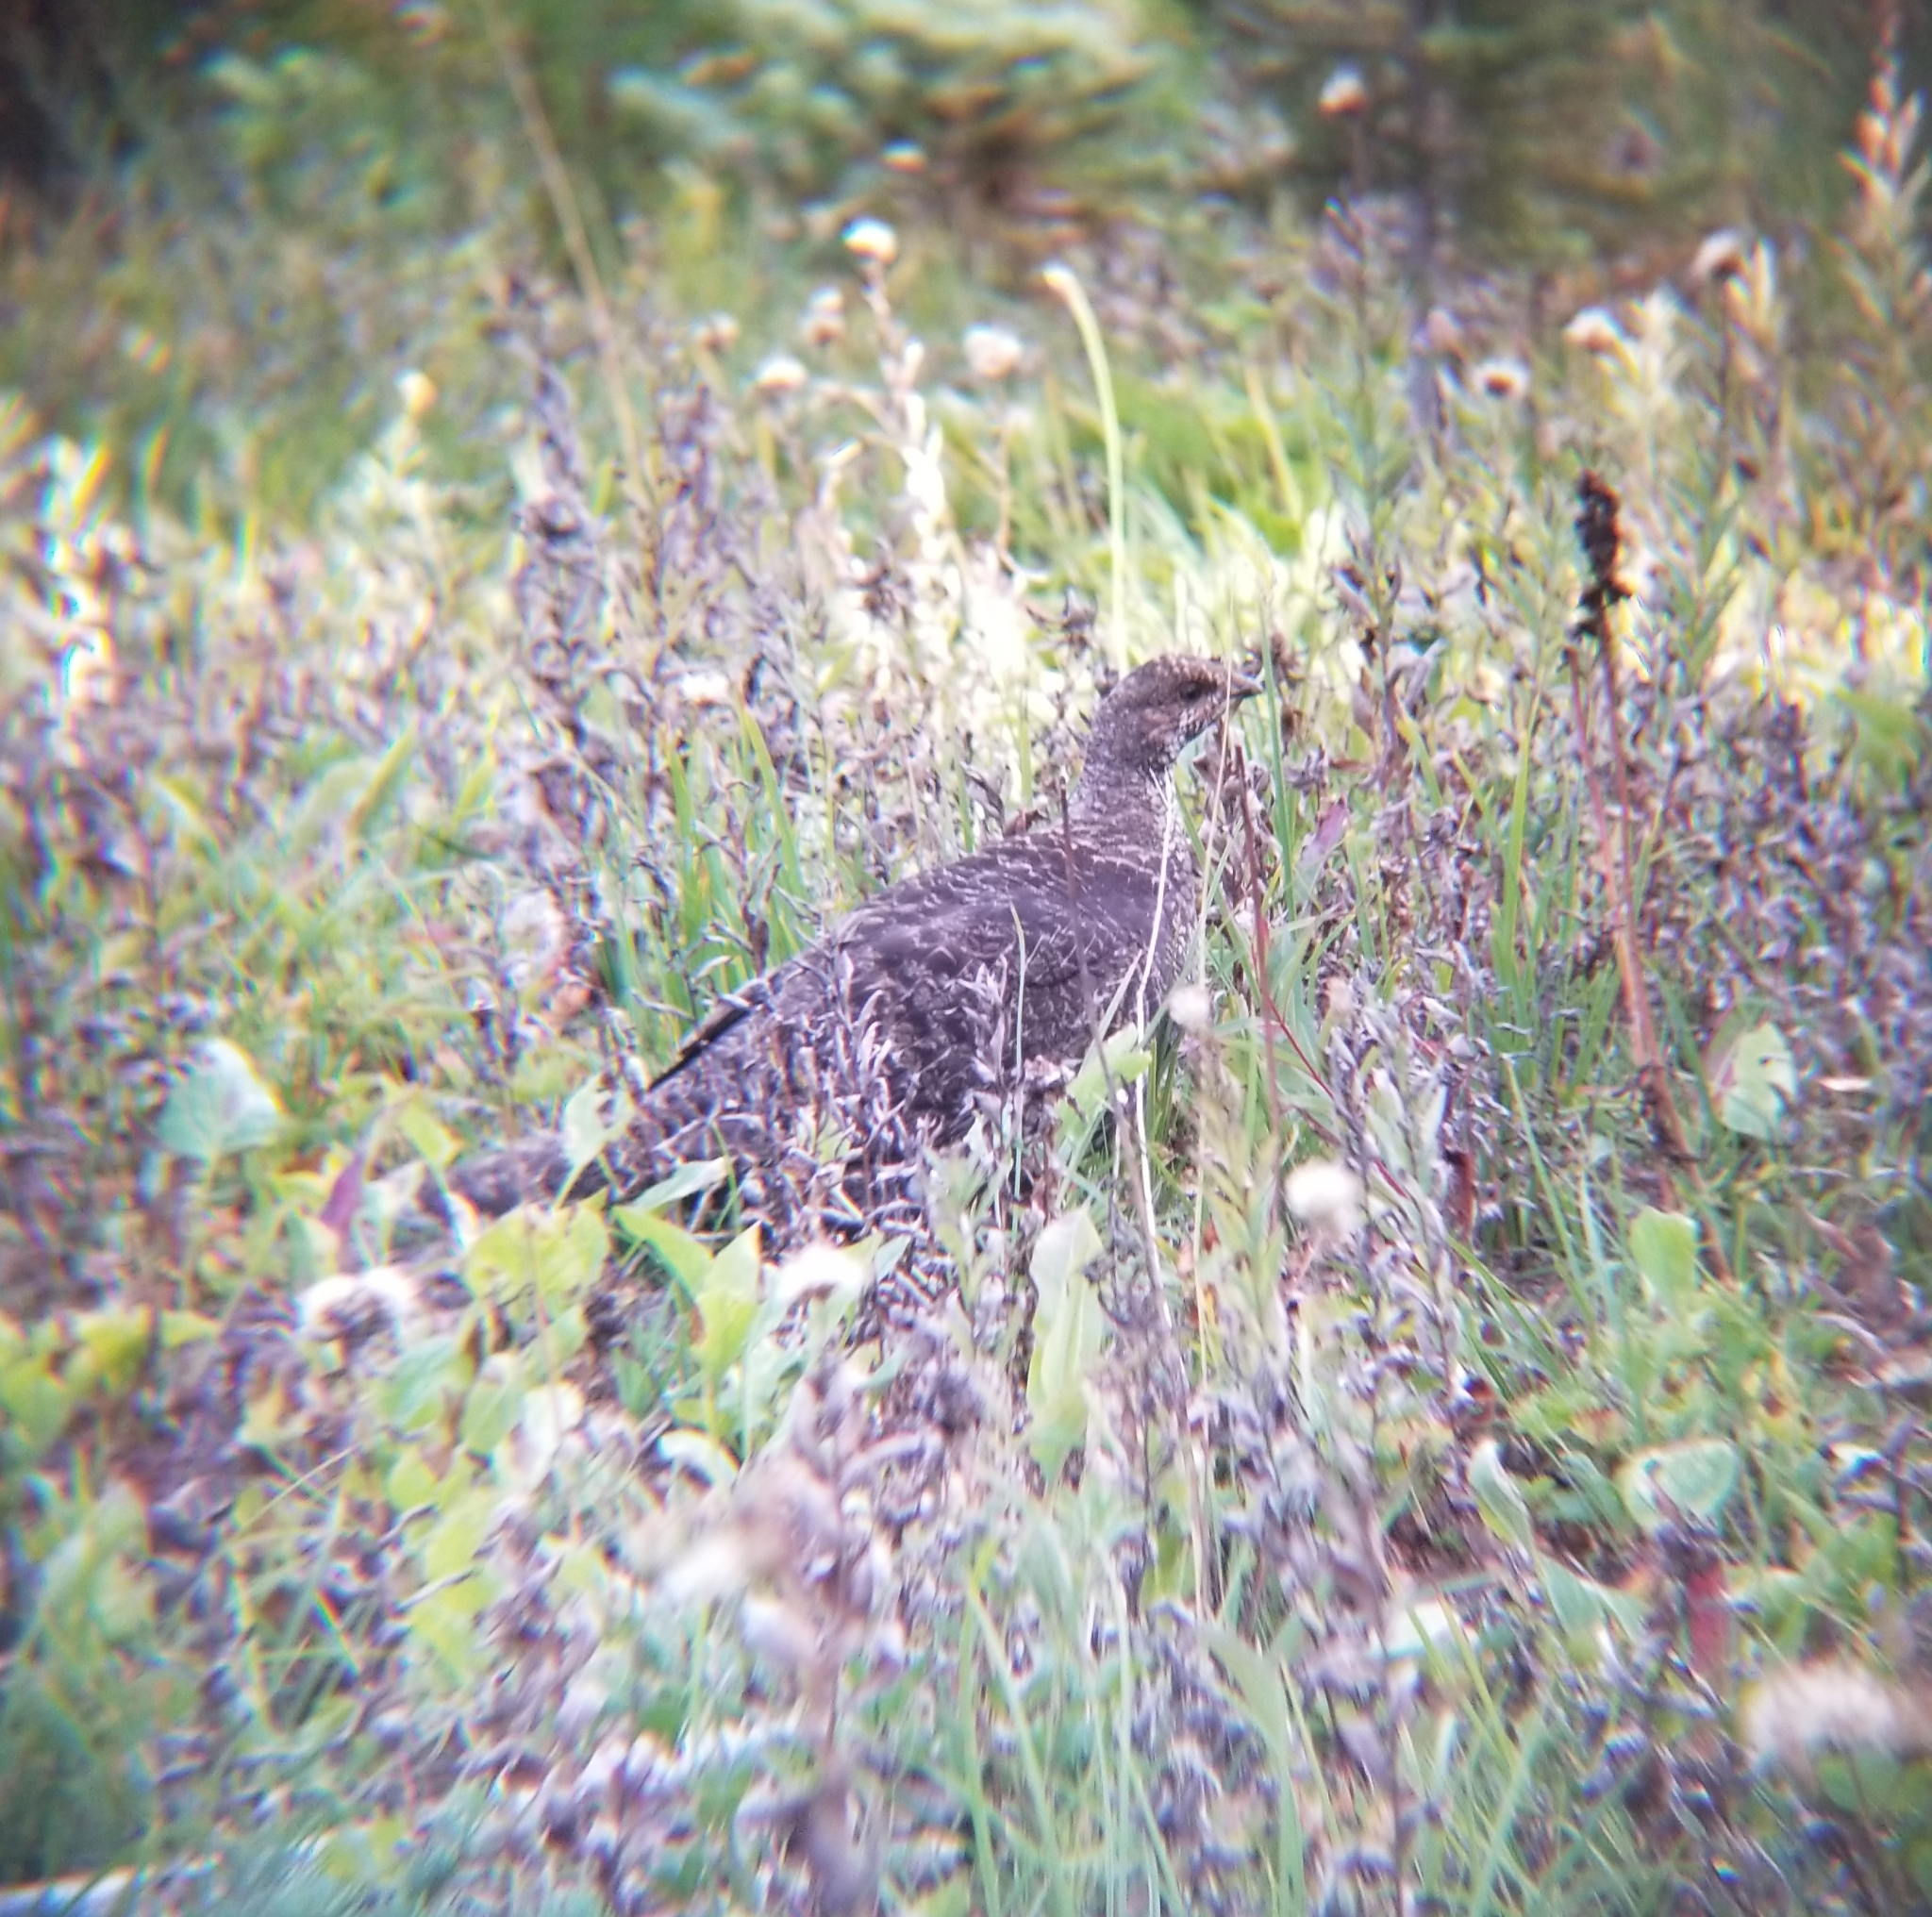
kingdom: Animalia
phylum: Chordata
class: Aves
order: Galliformes
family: Phasianidae
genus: Dendragapus
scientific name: Dendragapus fuliginosus
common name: Sooty grouse
